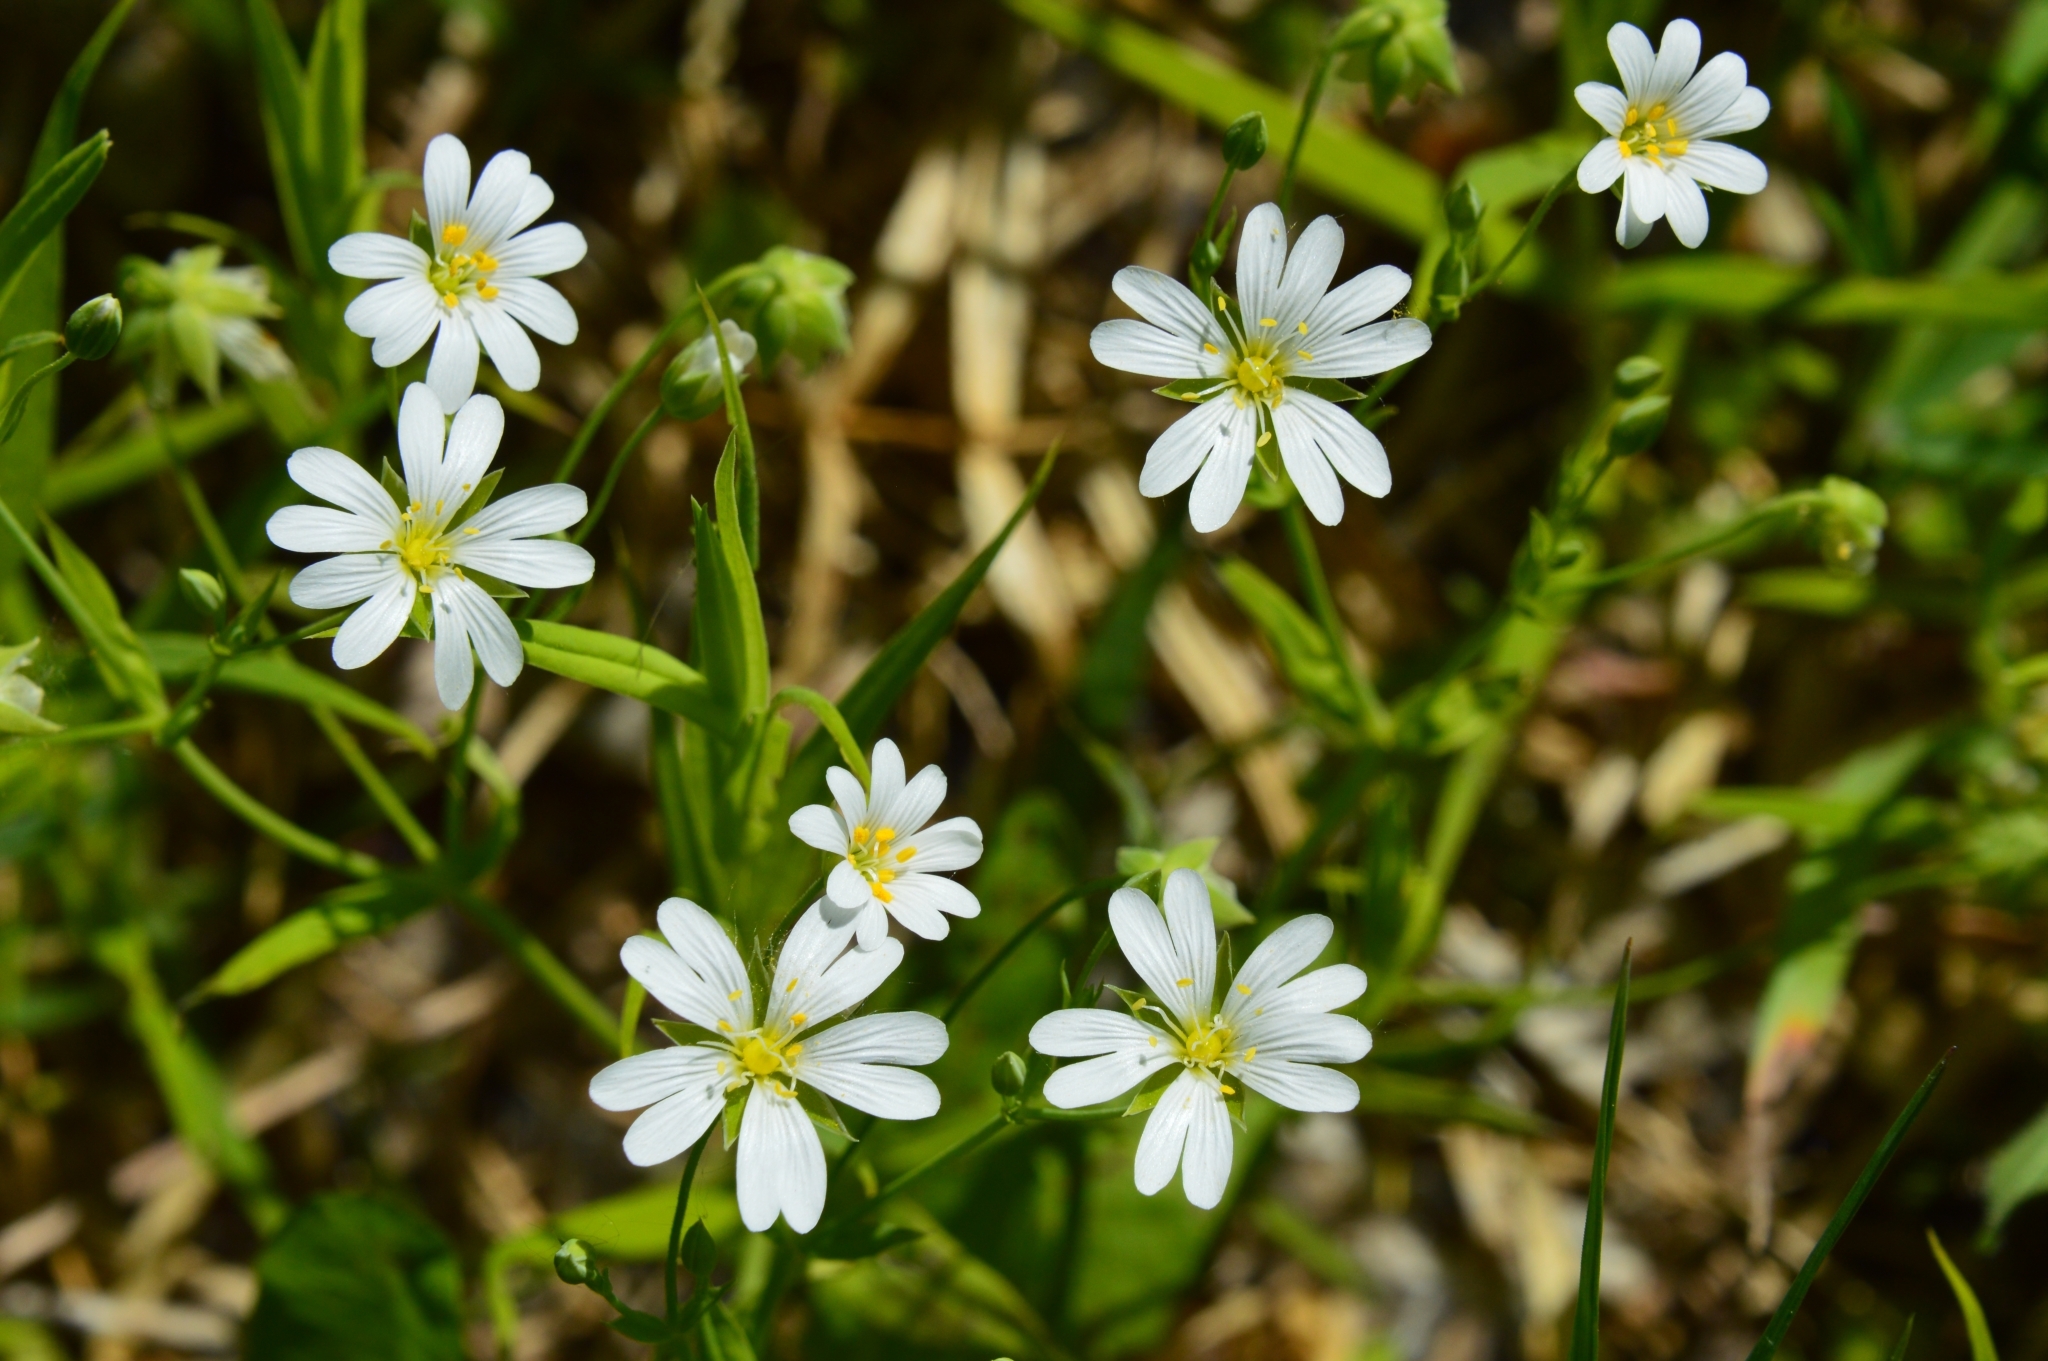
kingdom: Plantae
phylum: Tracheophyta
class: Magnoliopsida
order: Caryophyllales
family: Caryophyllaceae
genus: Rabelera
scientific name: Rabelera holostea
